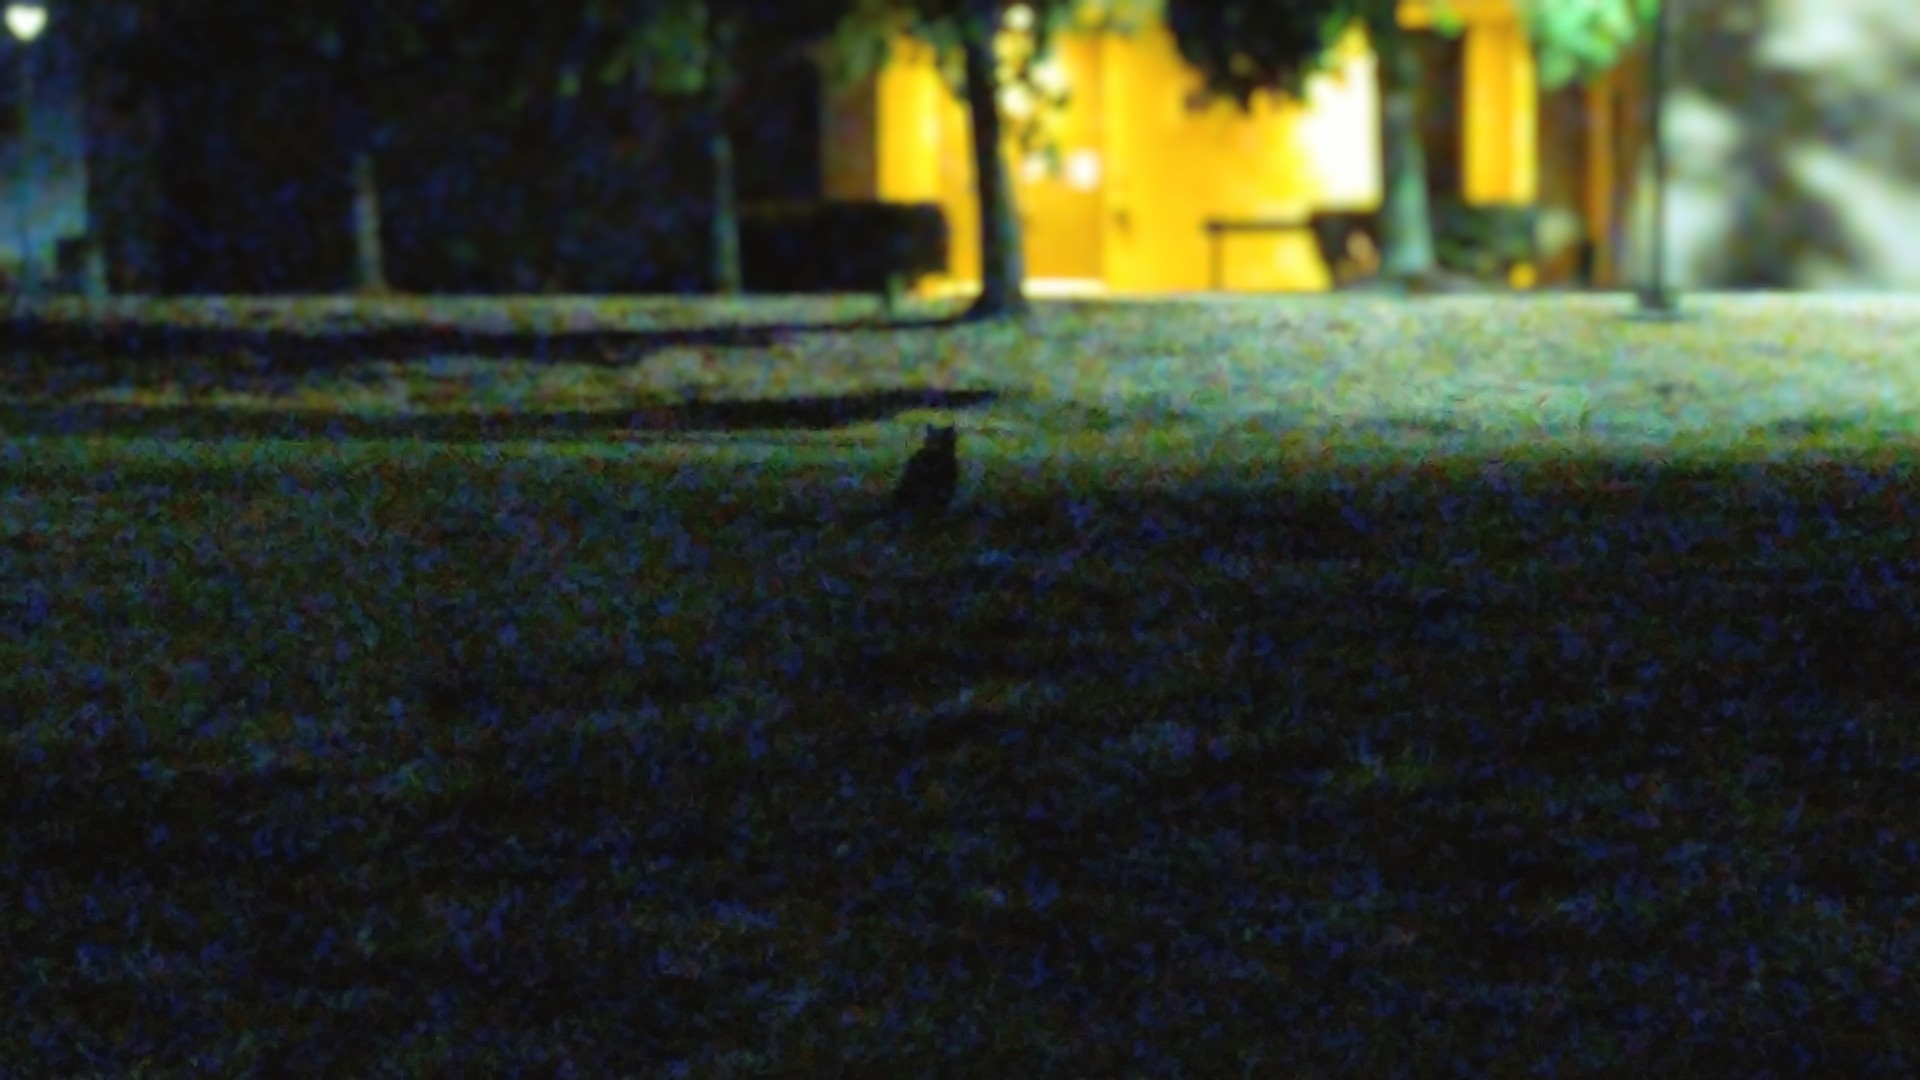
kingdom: Animalia
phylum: Chordata
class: Aves
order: Strigiformes
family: Strigidae
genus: Bubo
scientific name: Bubo virginianus
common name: Great horned owl
